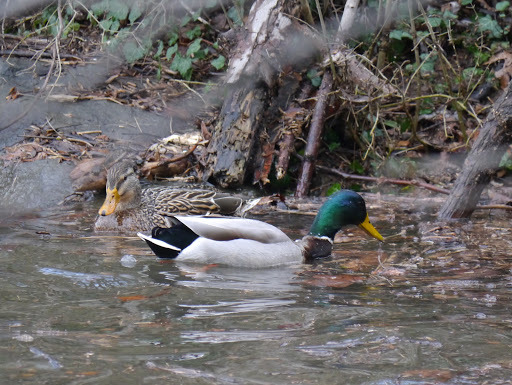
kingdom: Animalia
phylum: Chordata
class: Aves
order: Anseriformes
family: Anatidae
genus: Anas
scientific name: Anas platyrhynchos
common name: Mallard
